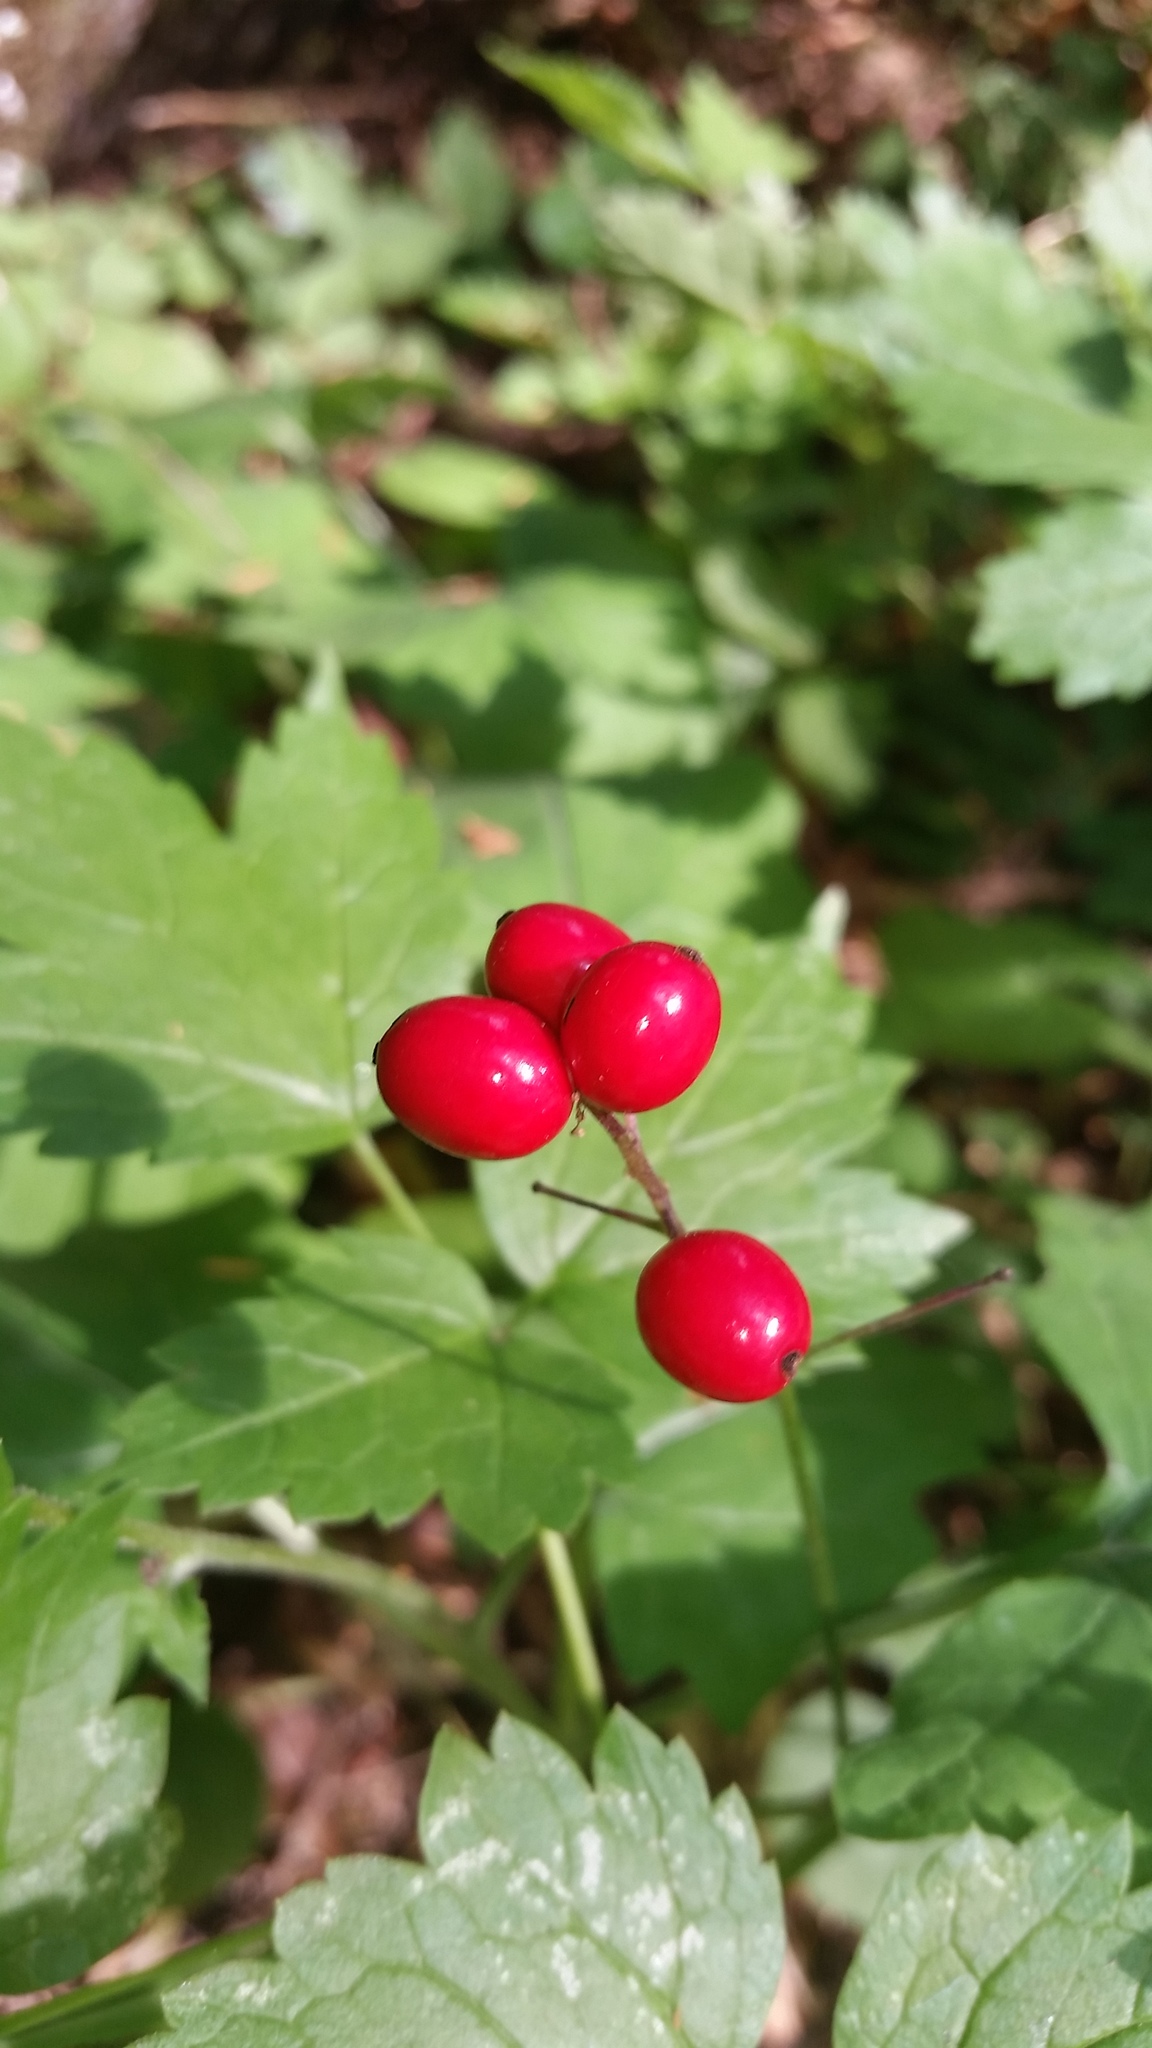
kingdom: Plantae
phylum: Tracheophyta
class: Magnoliopsida
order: Ranunculales
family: Ranunculaceae
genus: Actaea
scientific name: Actaea rubra
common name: Red baneberry
